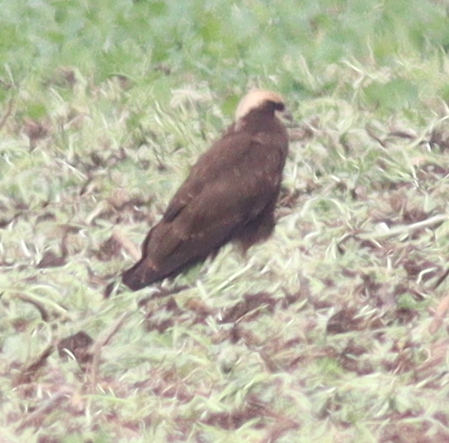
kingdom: Animalia
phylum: Chordata
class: Aves
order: Accipitriformes
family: Accipitridae
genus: Circus
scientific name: Circus aeruginosus
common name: Western marsh harrier
